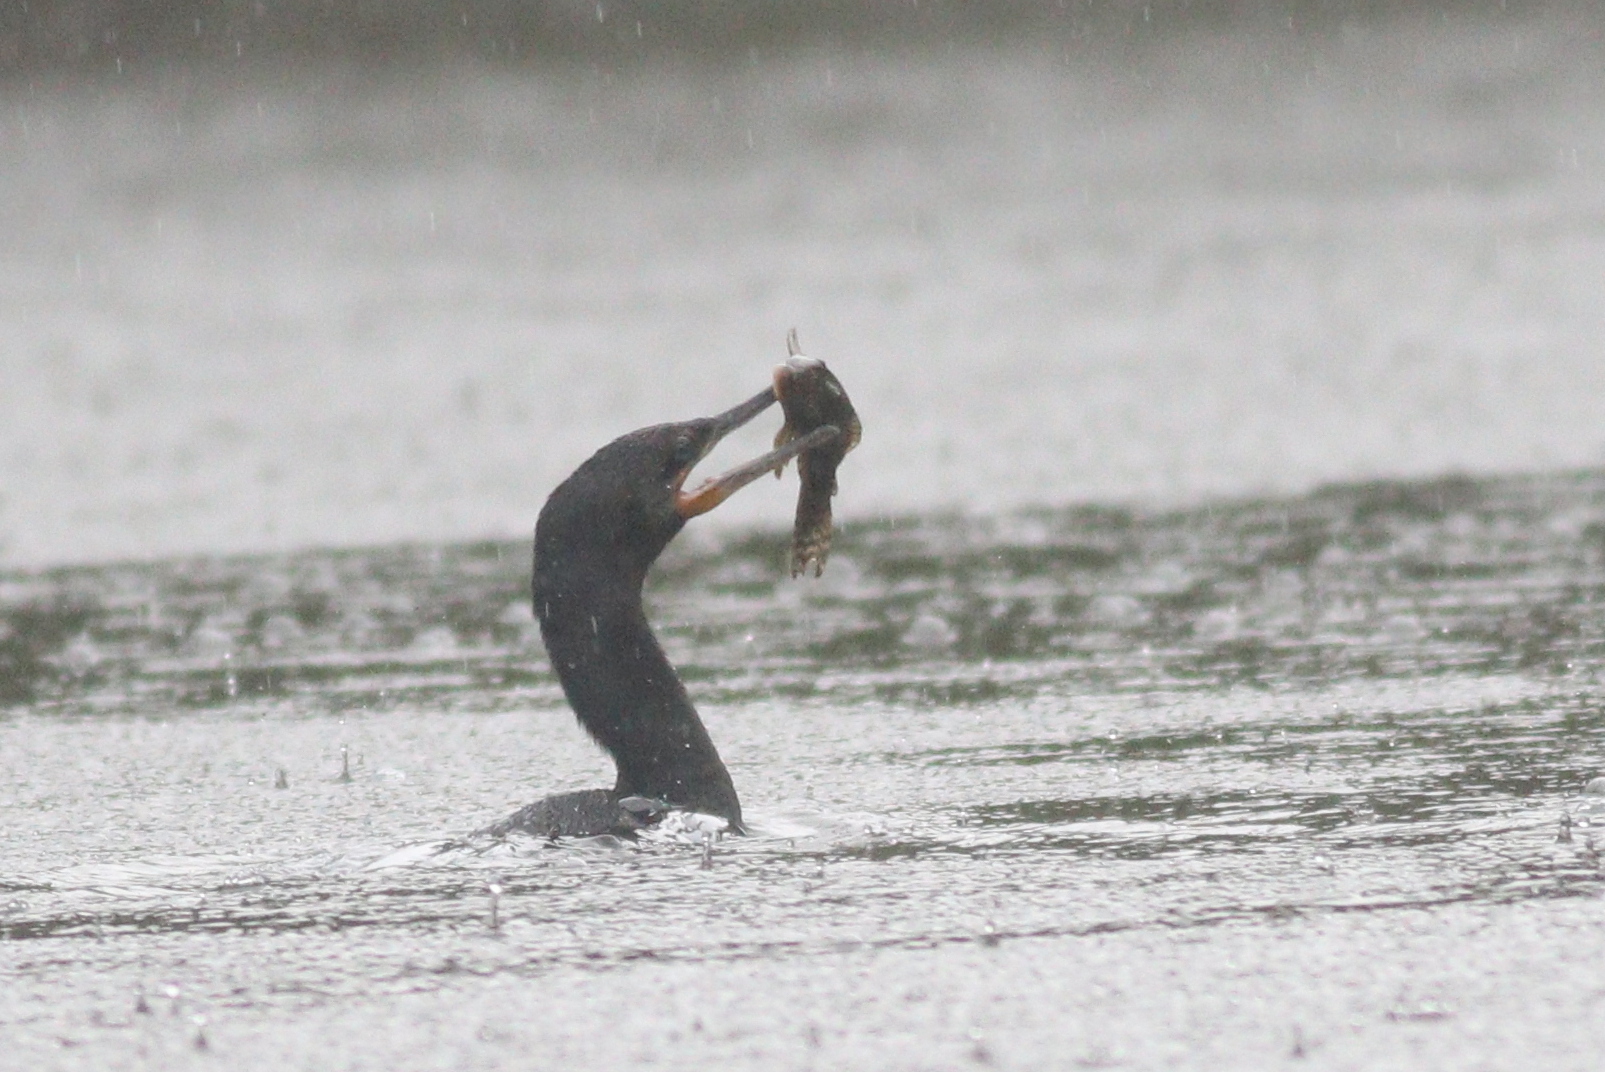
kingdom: Animalia
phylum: Chordata
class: Aves
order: Suliformes
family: Phalacrocoracidae
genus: Phalacrocorax
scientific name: Phalacrocorax brasilianus
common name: Neotropic cormorant
